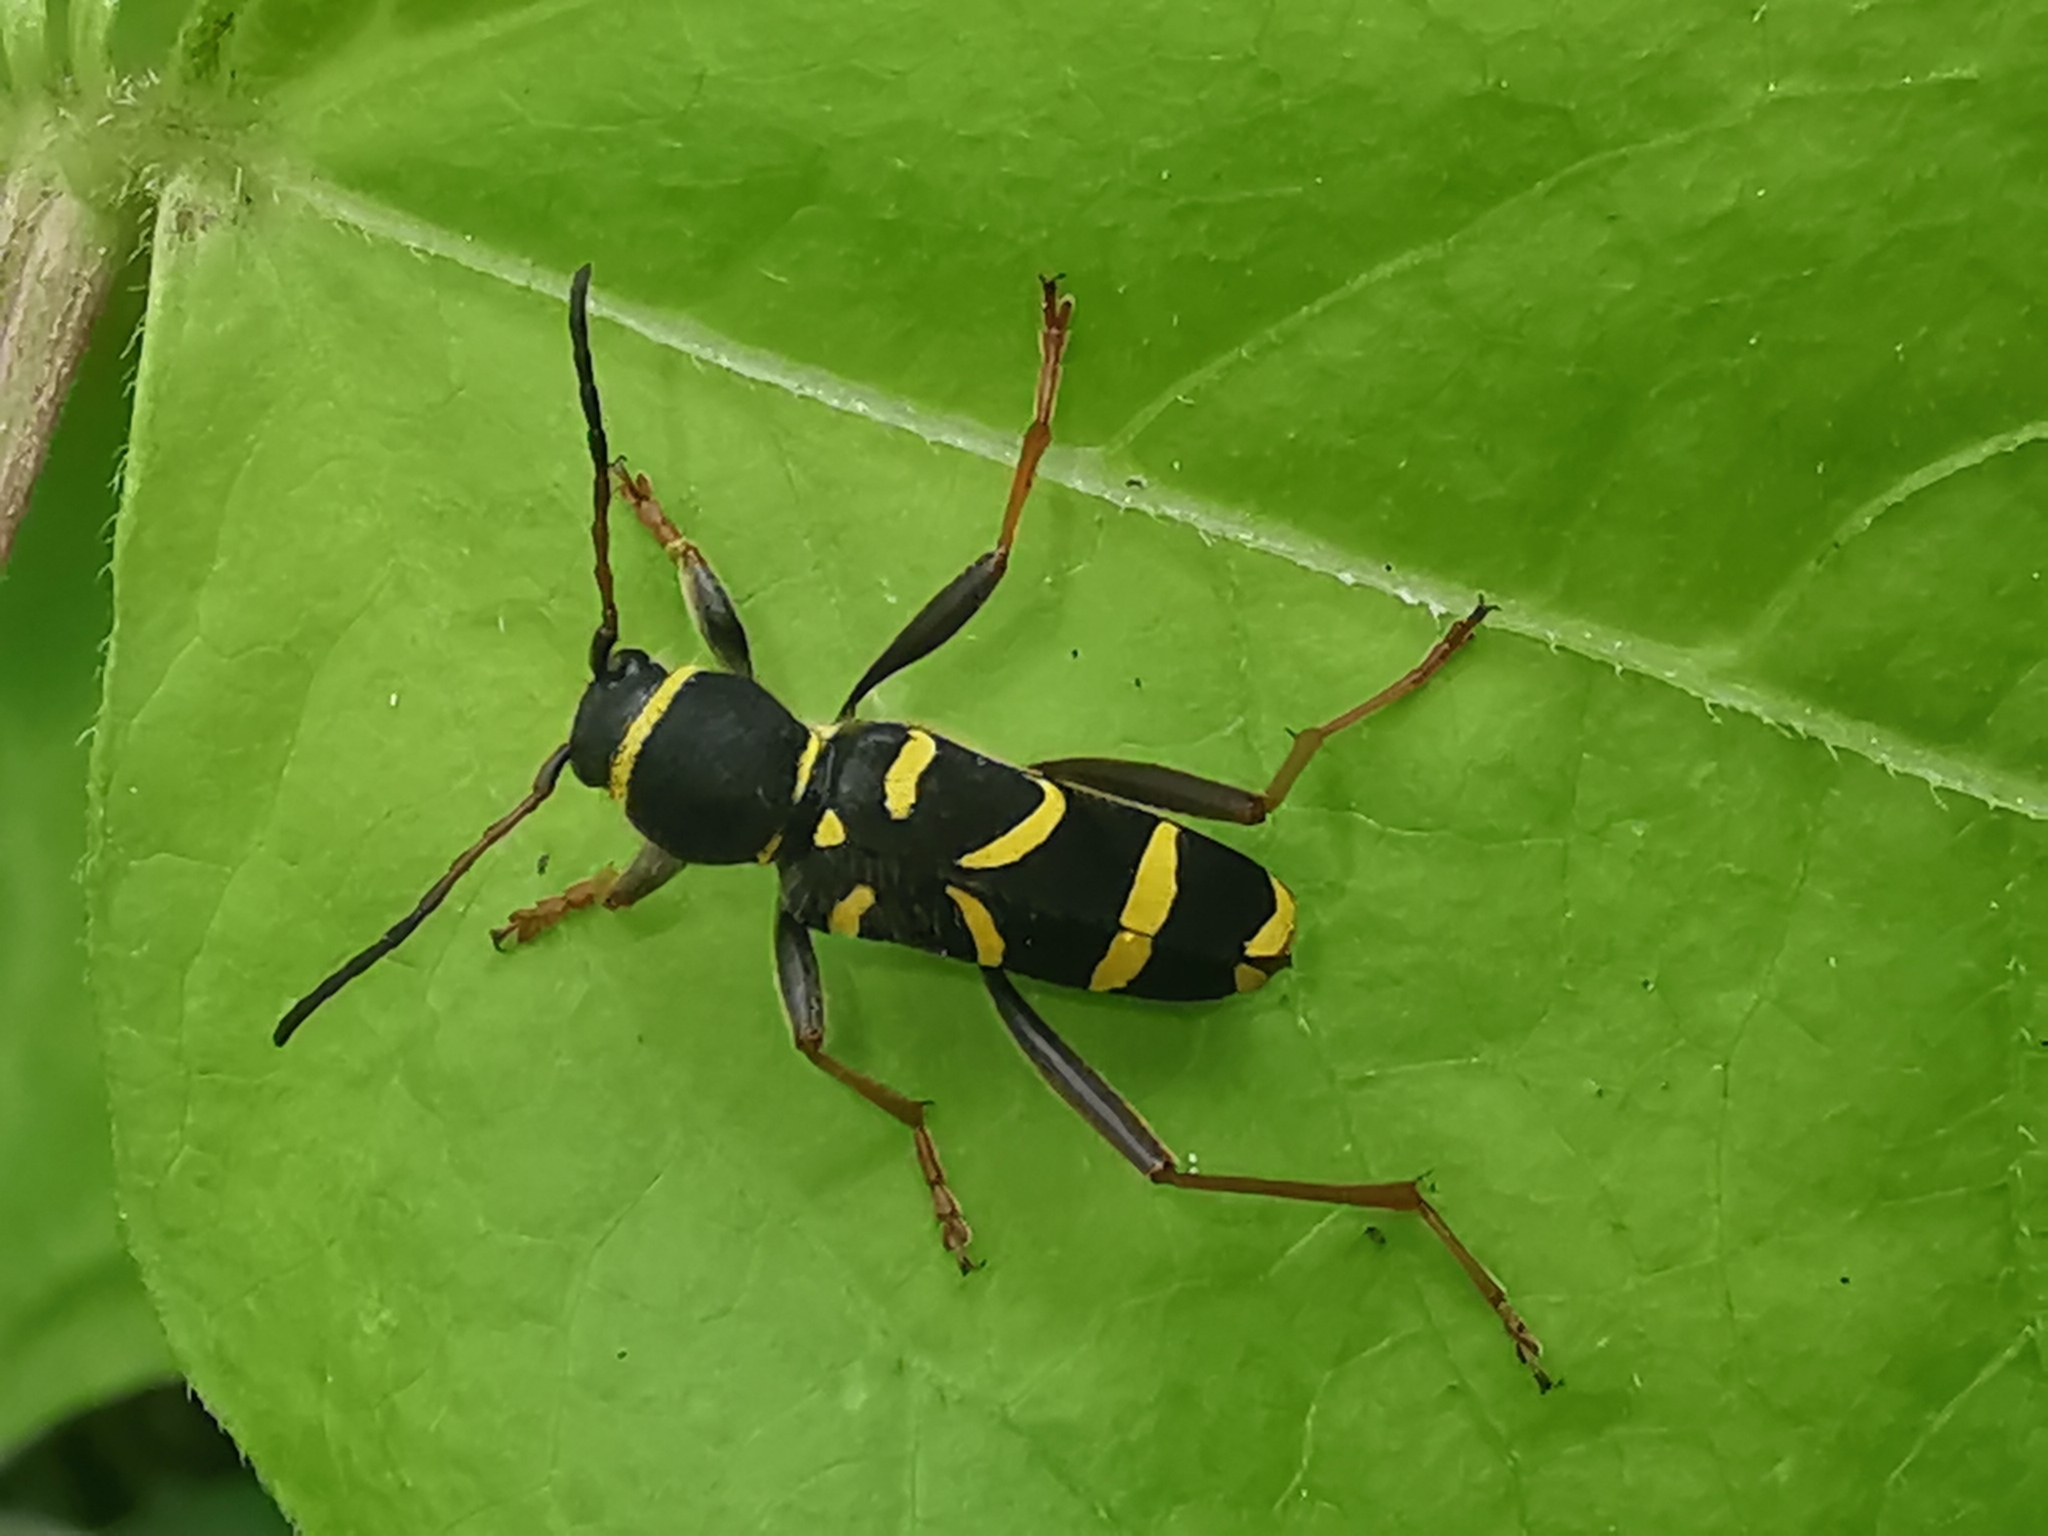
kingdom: Animalia
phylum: Arthropoda
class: Insecta
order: Coleoptera
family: Cerambycidae
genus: Clytus
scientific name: Clytus arietis
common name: Wasp beetle
